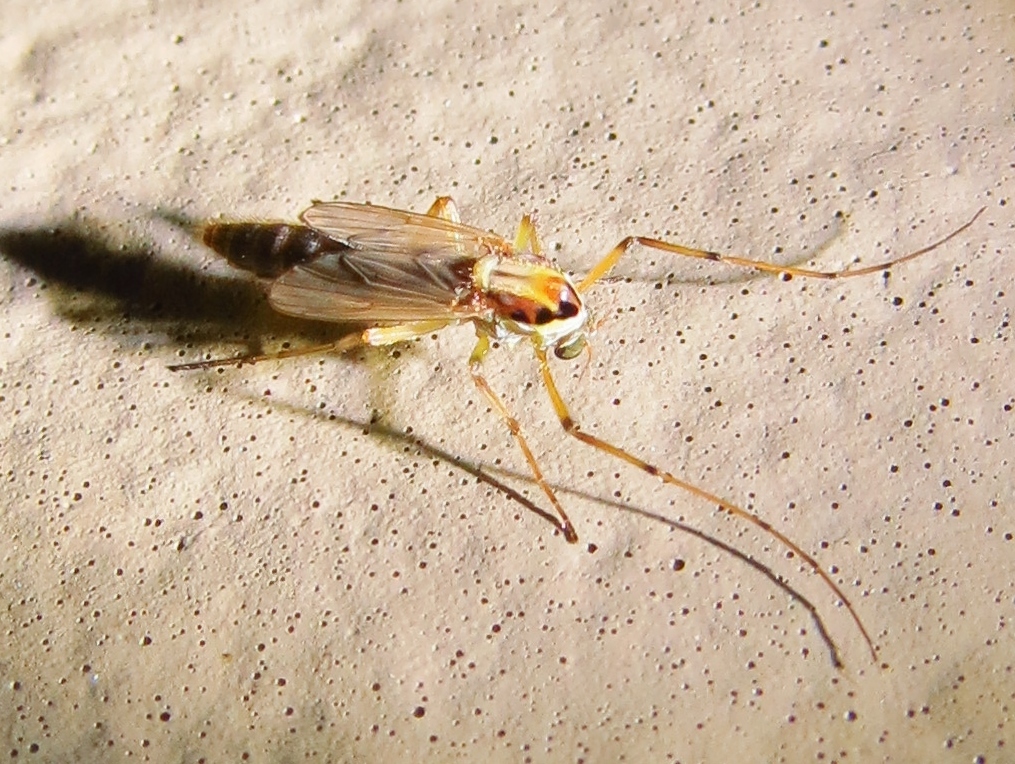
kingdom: Animalia
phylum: Arthropoda
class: Insecta
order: Diptera
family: Chironomidae
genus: Goeldichironomus
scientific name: Goeldichironomus carus
